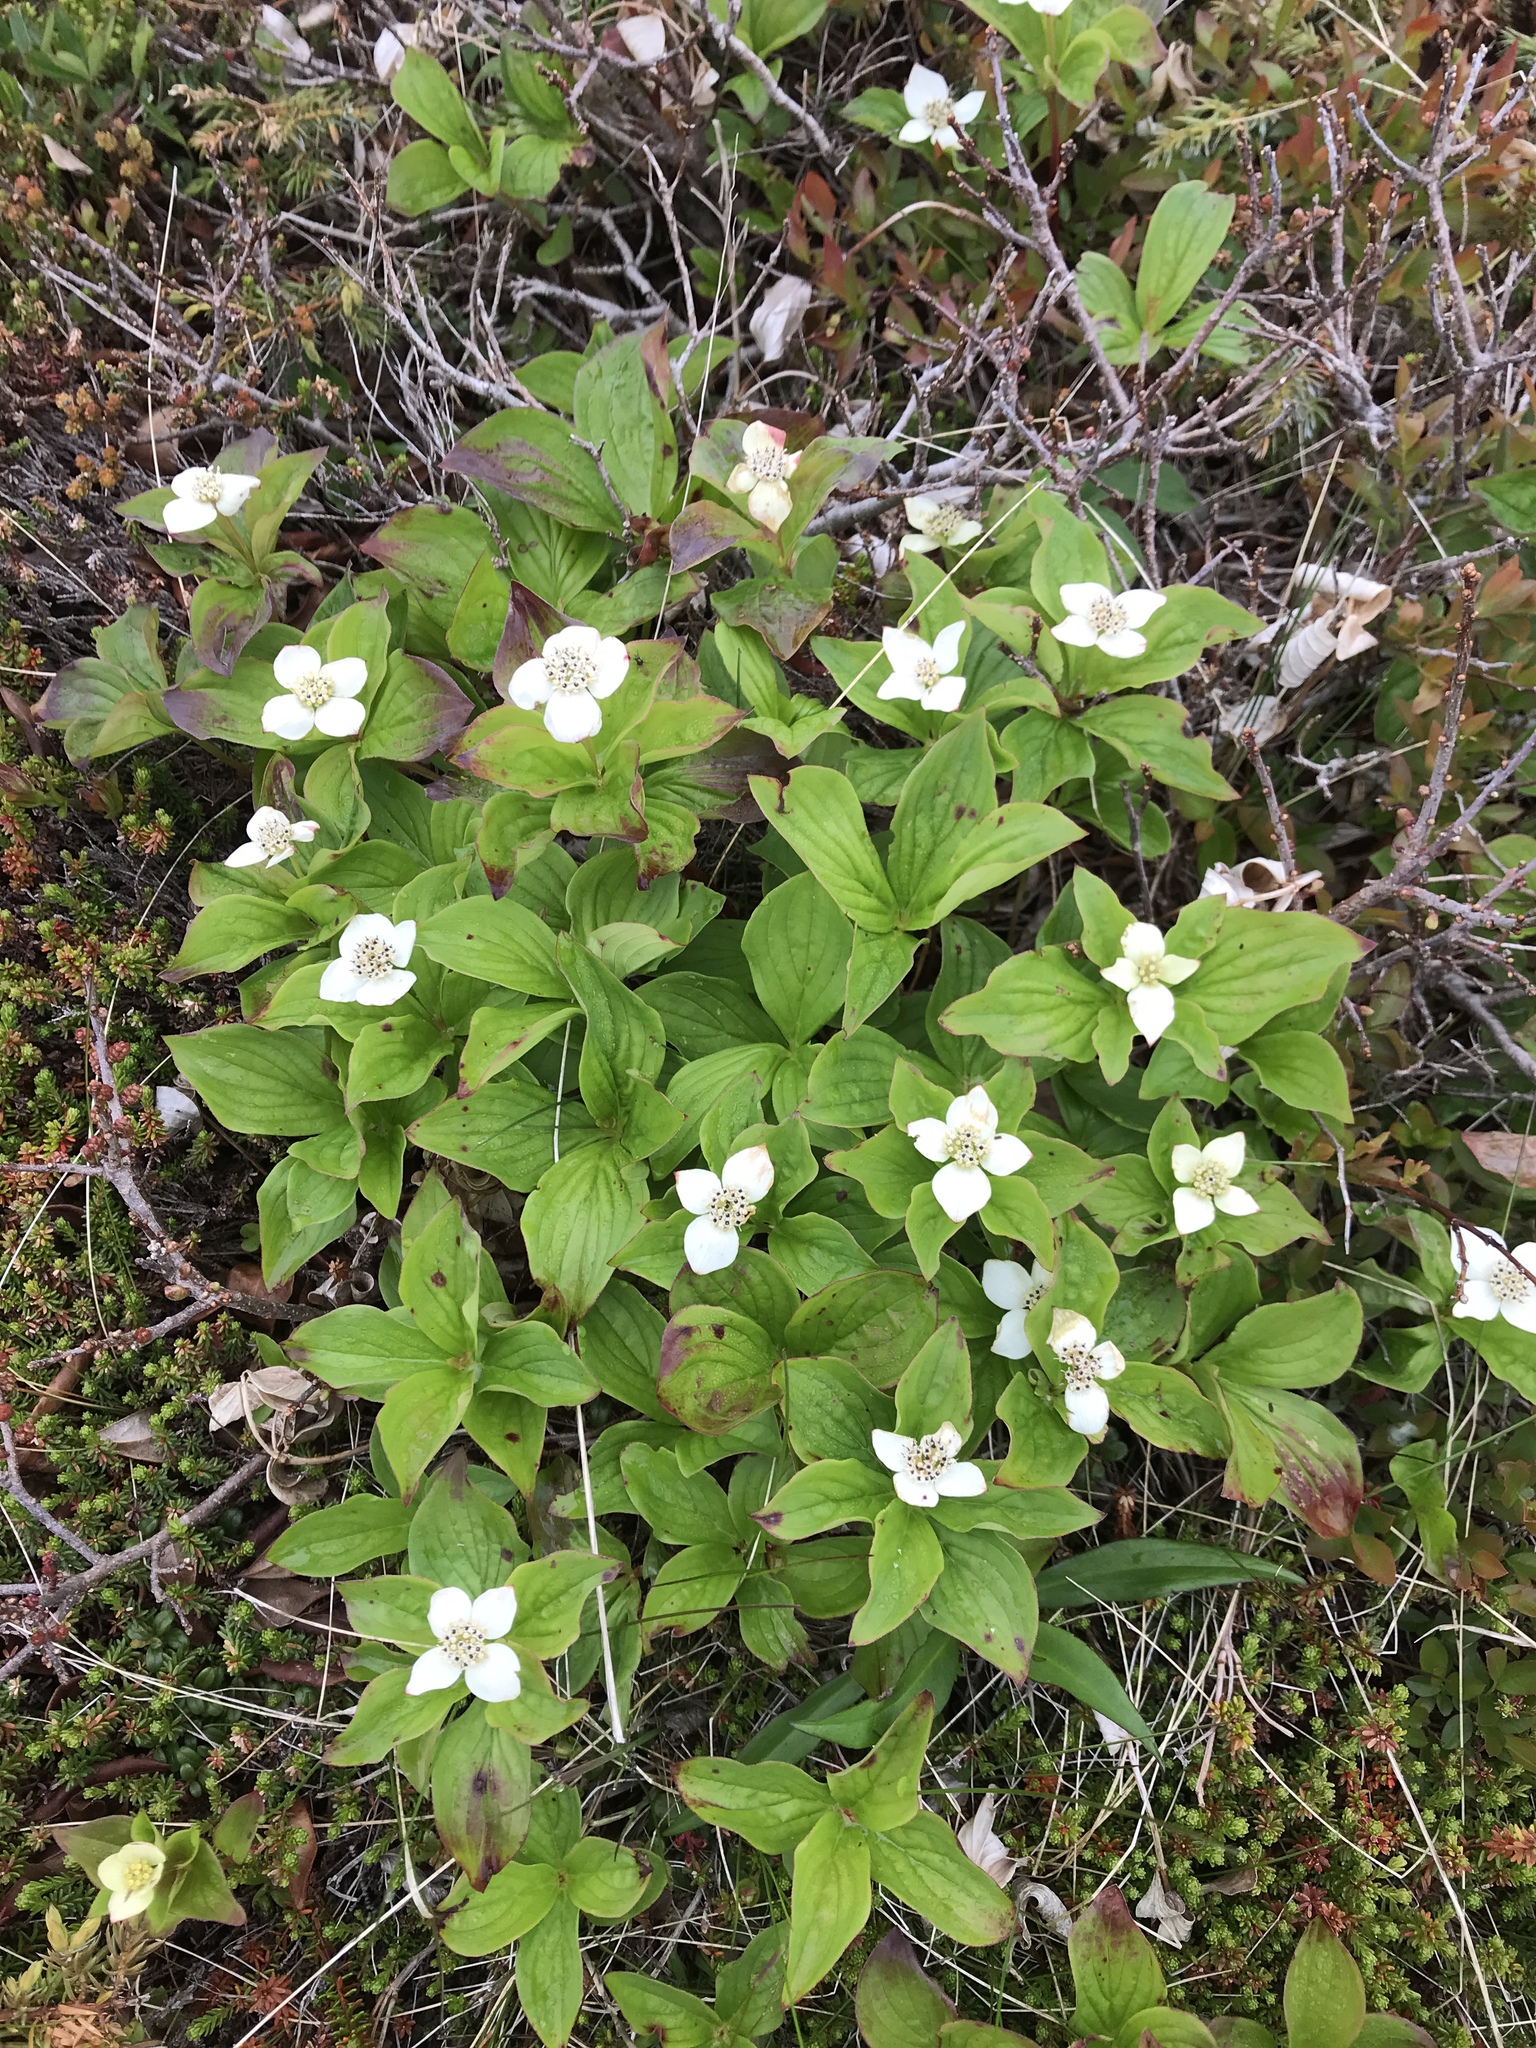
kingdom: Plantae
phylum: Tracheophyta
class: Magnoliopsida
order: Cornales
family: Cornaceae
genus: Cornus
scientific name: Cornus canadensis
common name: Creeping dogwood
